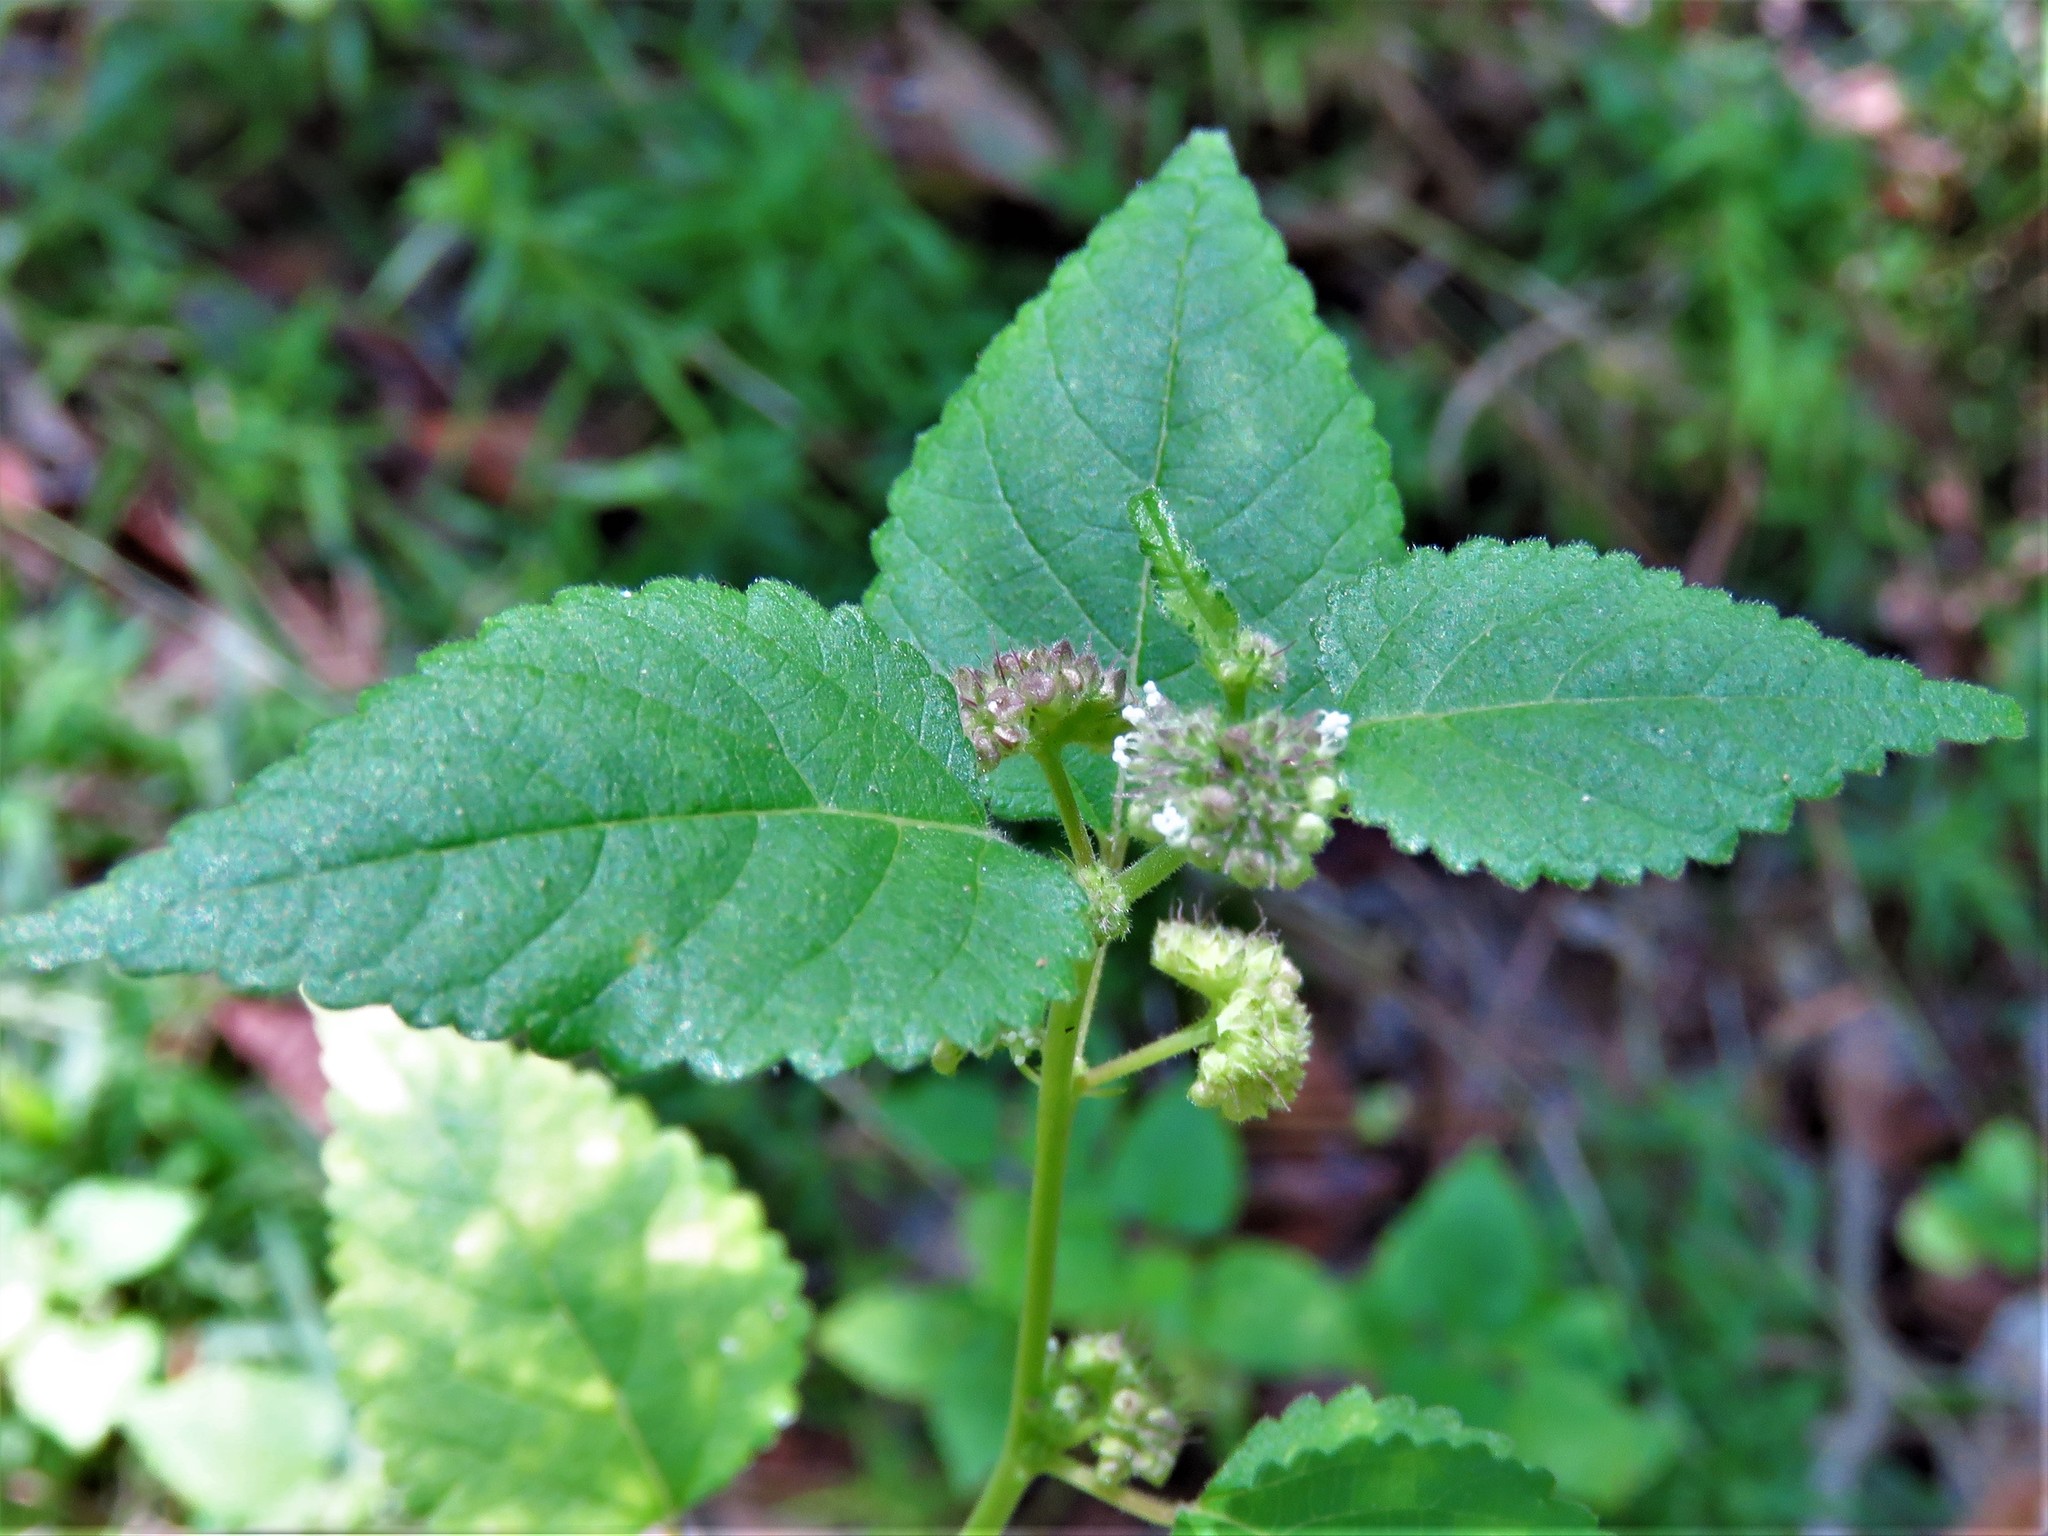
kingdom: Plantae
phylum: Tracheophyta
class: Magnoliopsida
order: Rosales
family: Moraceae
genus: Fatoua
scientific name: Fatoua villosa
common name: Hairy crabweed
